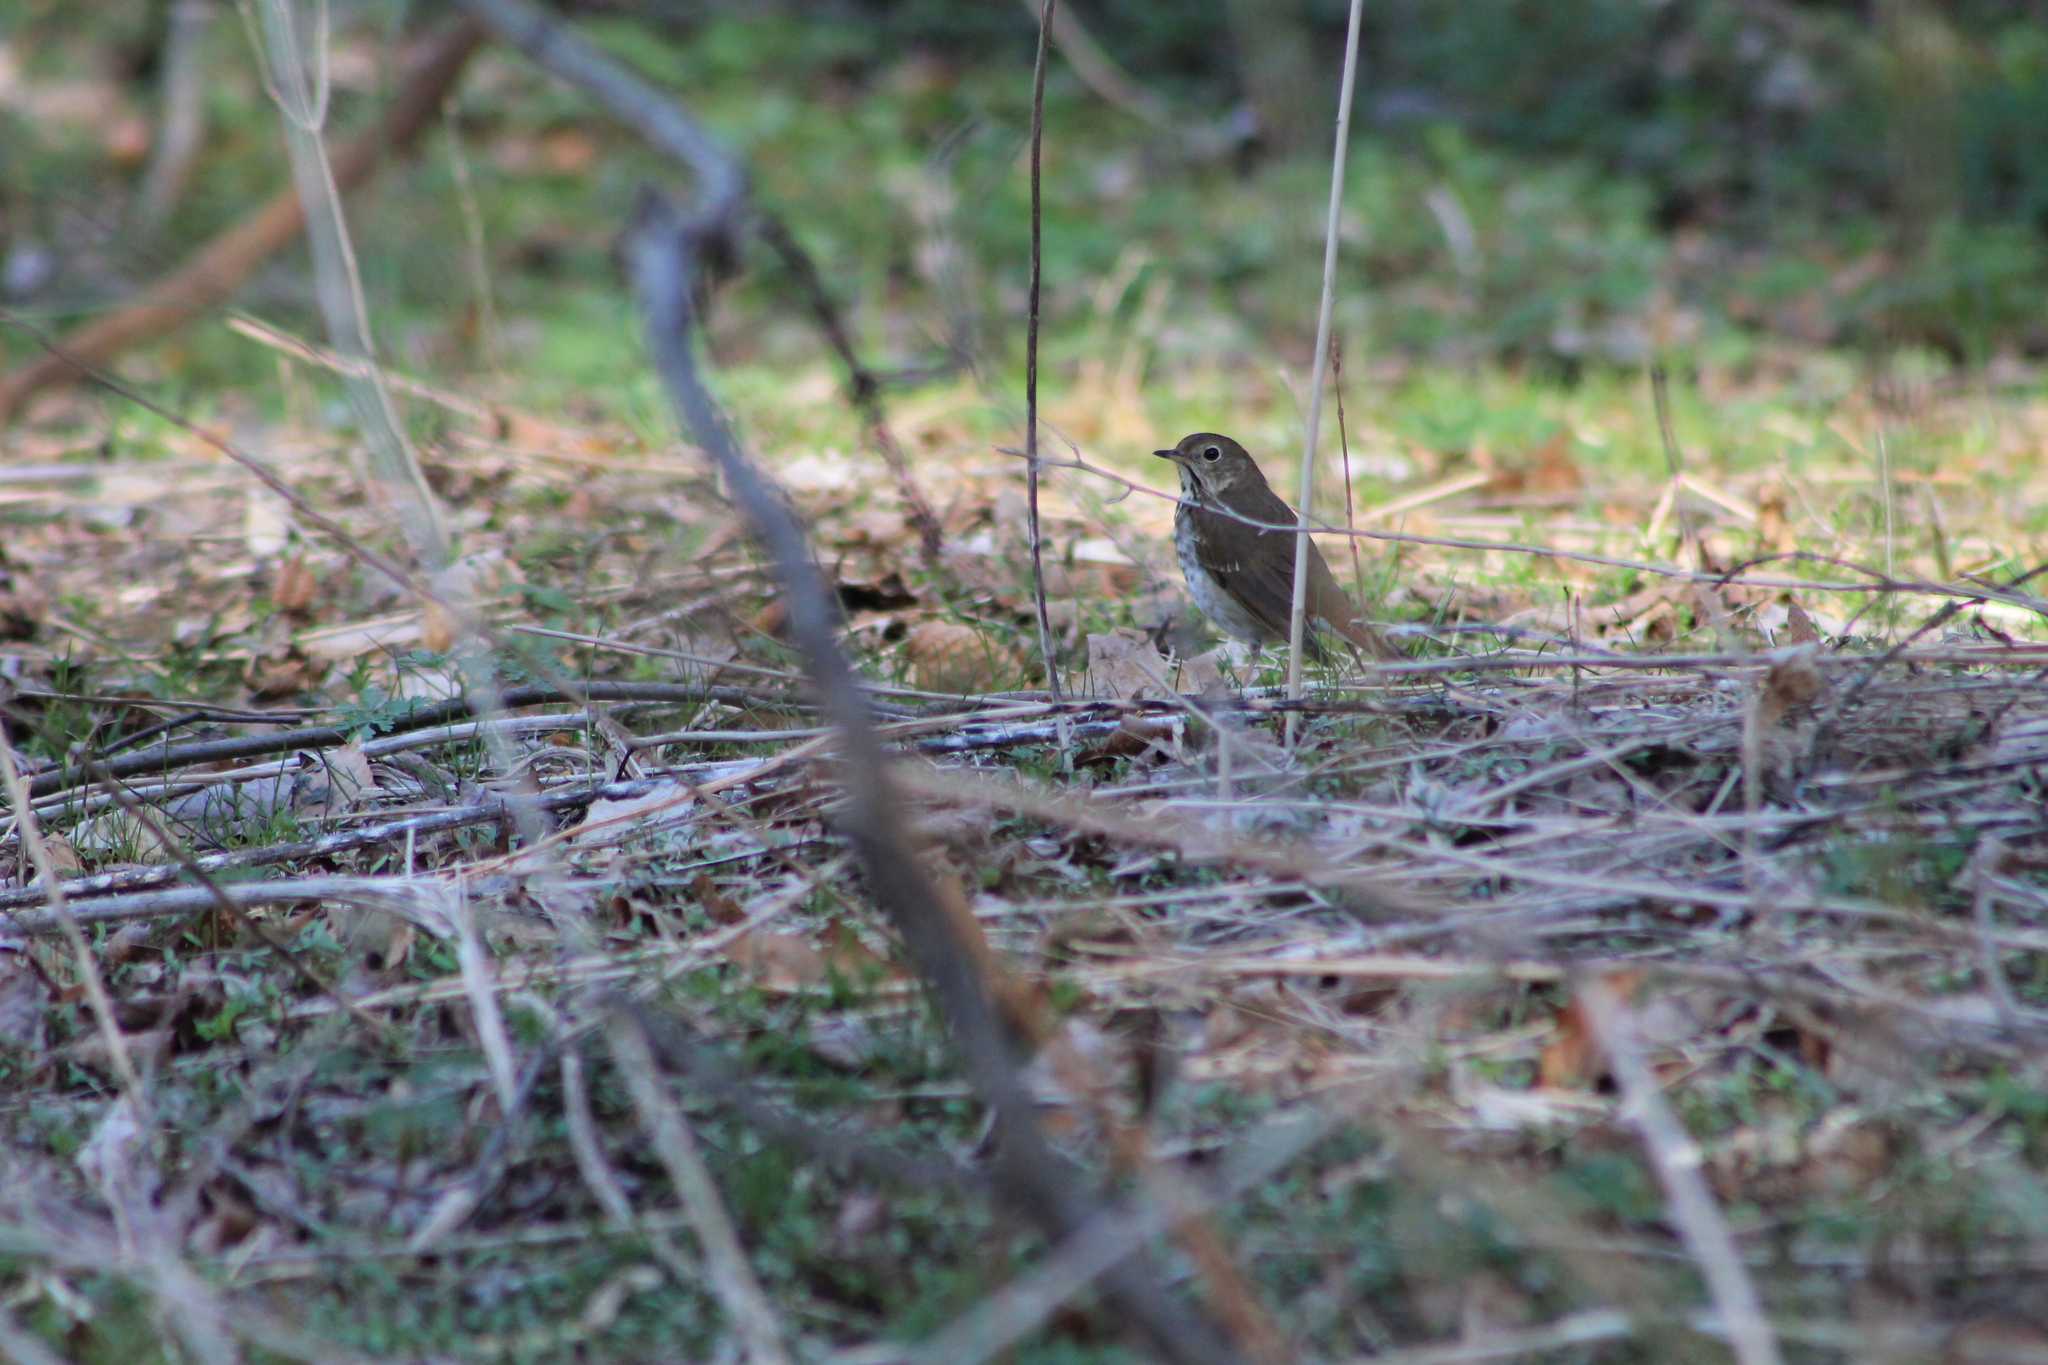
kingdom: Animalia
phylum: Chordata
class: Aves
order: Passeriformes
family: Turdidae
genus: Catharus
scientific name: Catharus guttatus
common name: Hermit thrush
